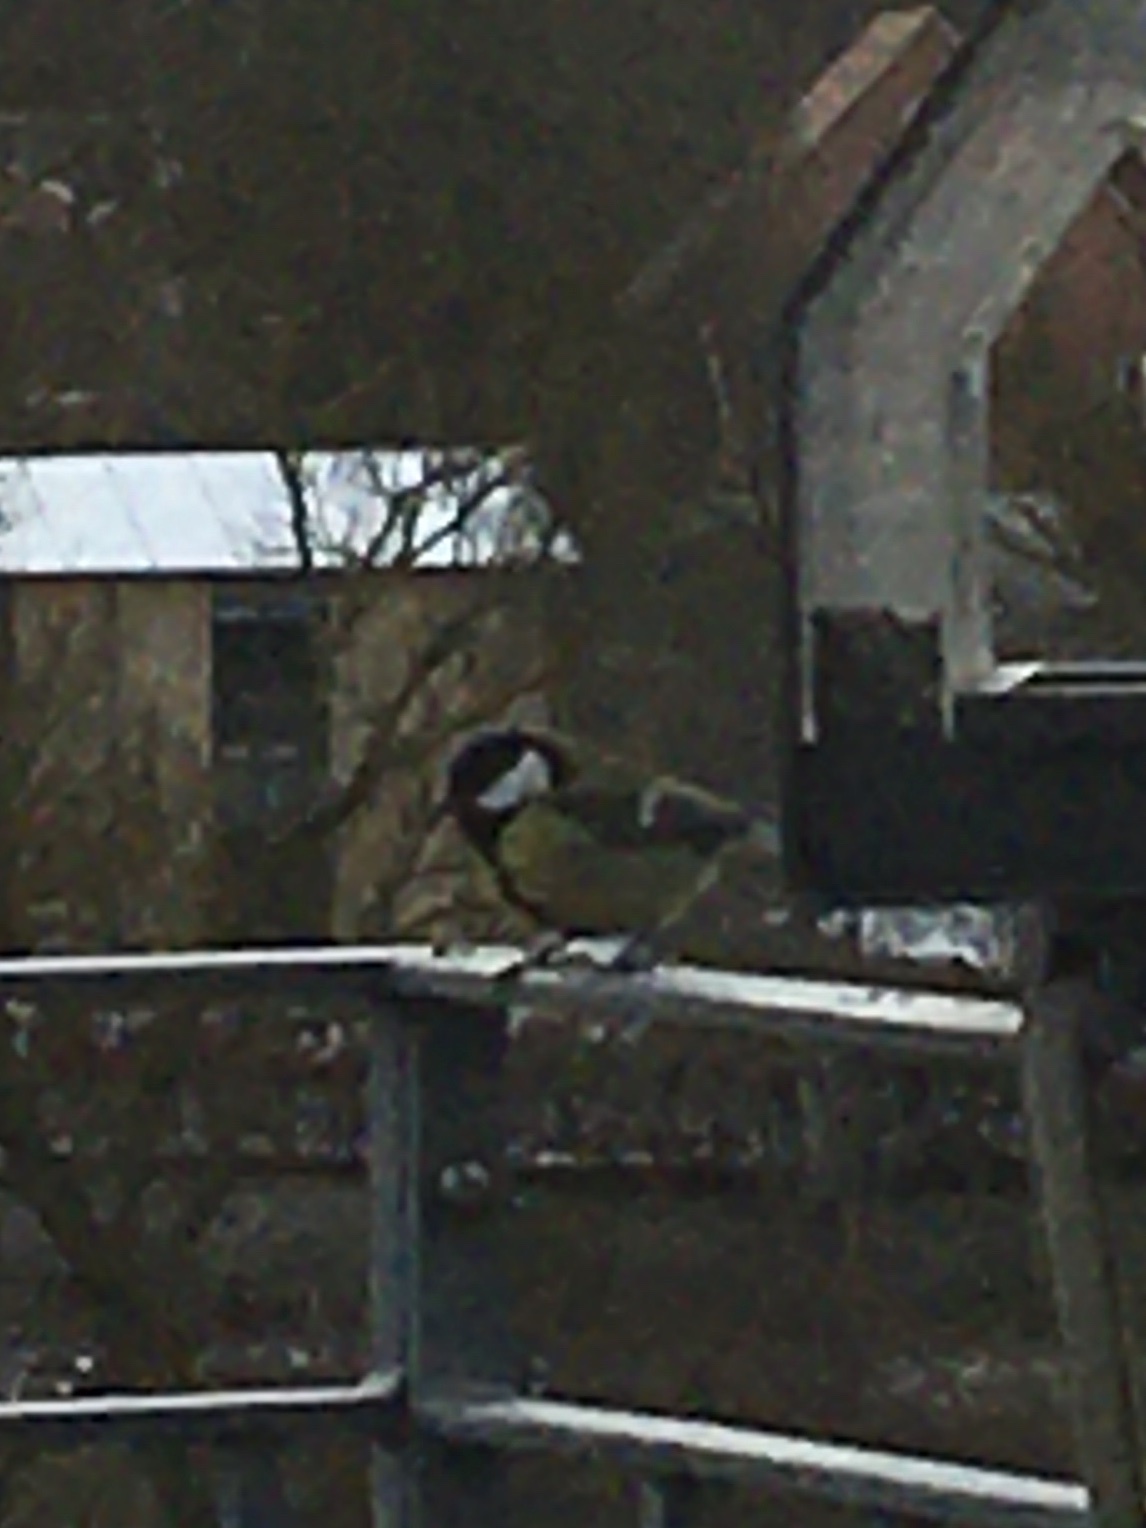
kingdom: Animalia
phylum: Chordata
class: Aves
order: Passeriformes
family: Paridae
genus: Parus
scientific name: Parus major
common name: Great tit
